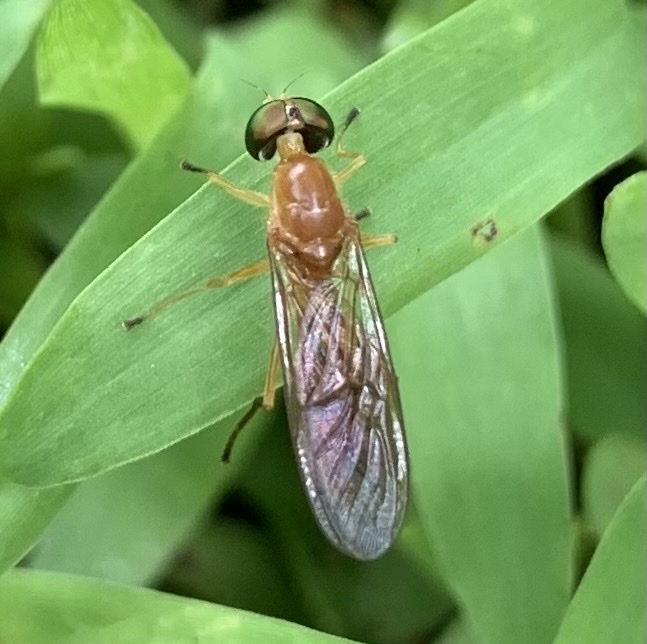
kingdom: Animalia
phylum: Arthropoda
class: Insecta
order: Diptera
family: Stratiomyidae
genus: Ptecticus
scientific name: Ptecticus trivittatus
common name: Compost fly
